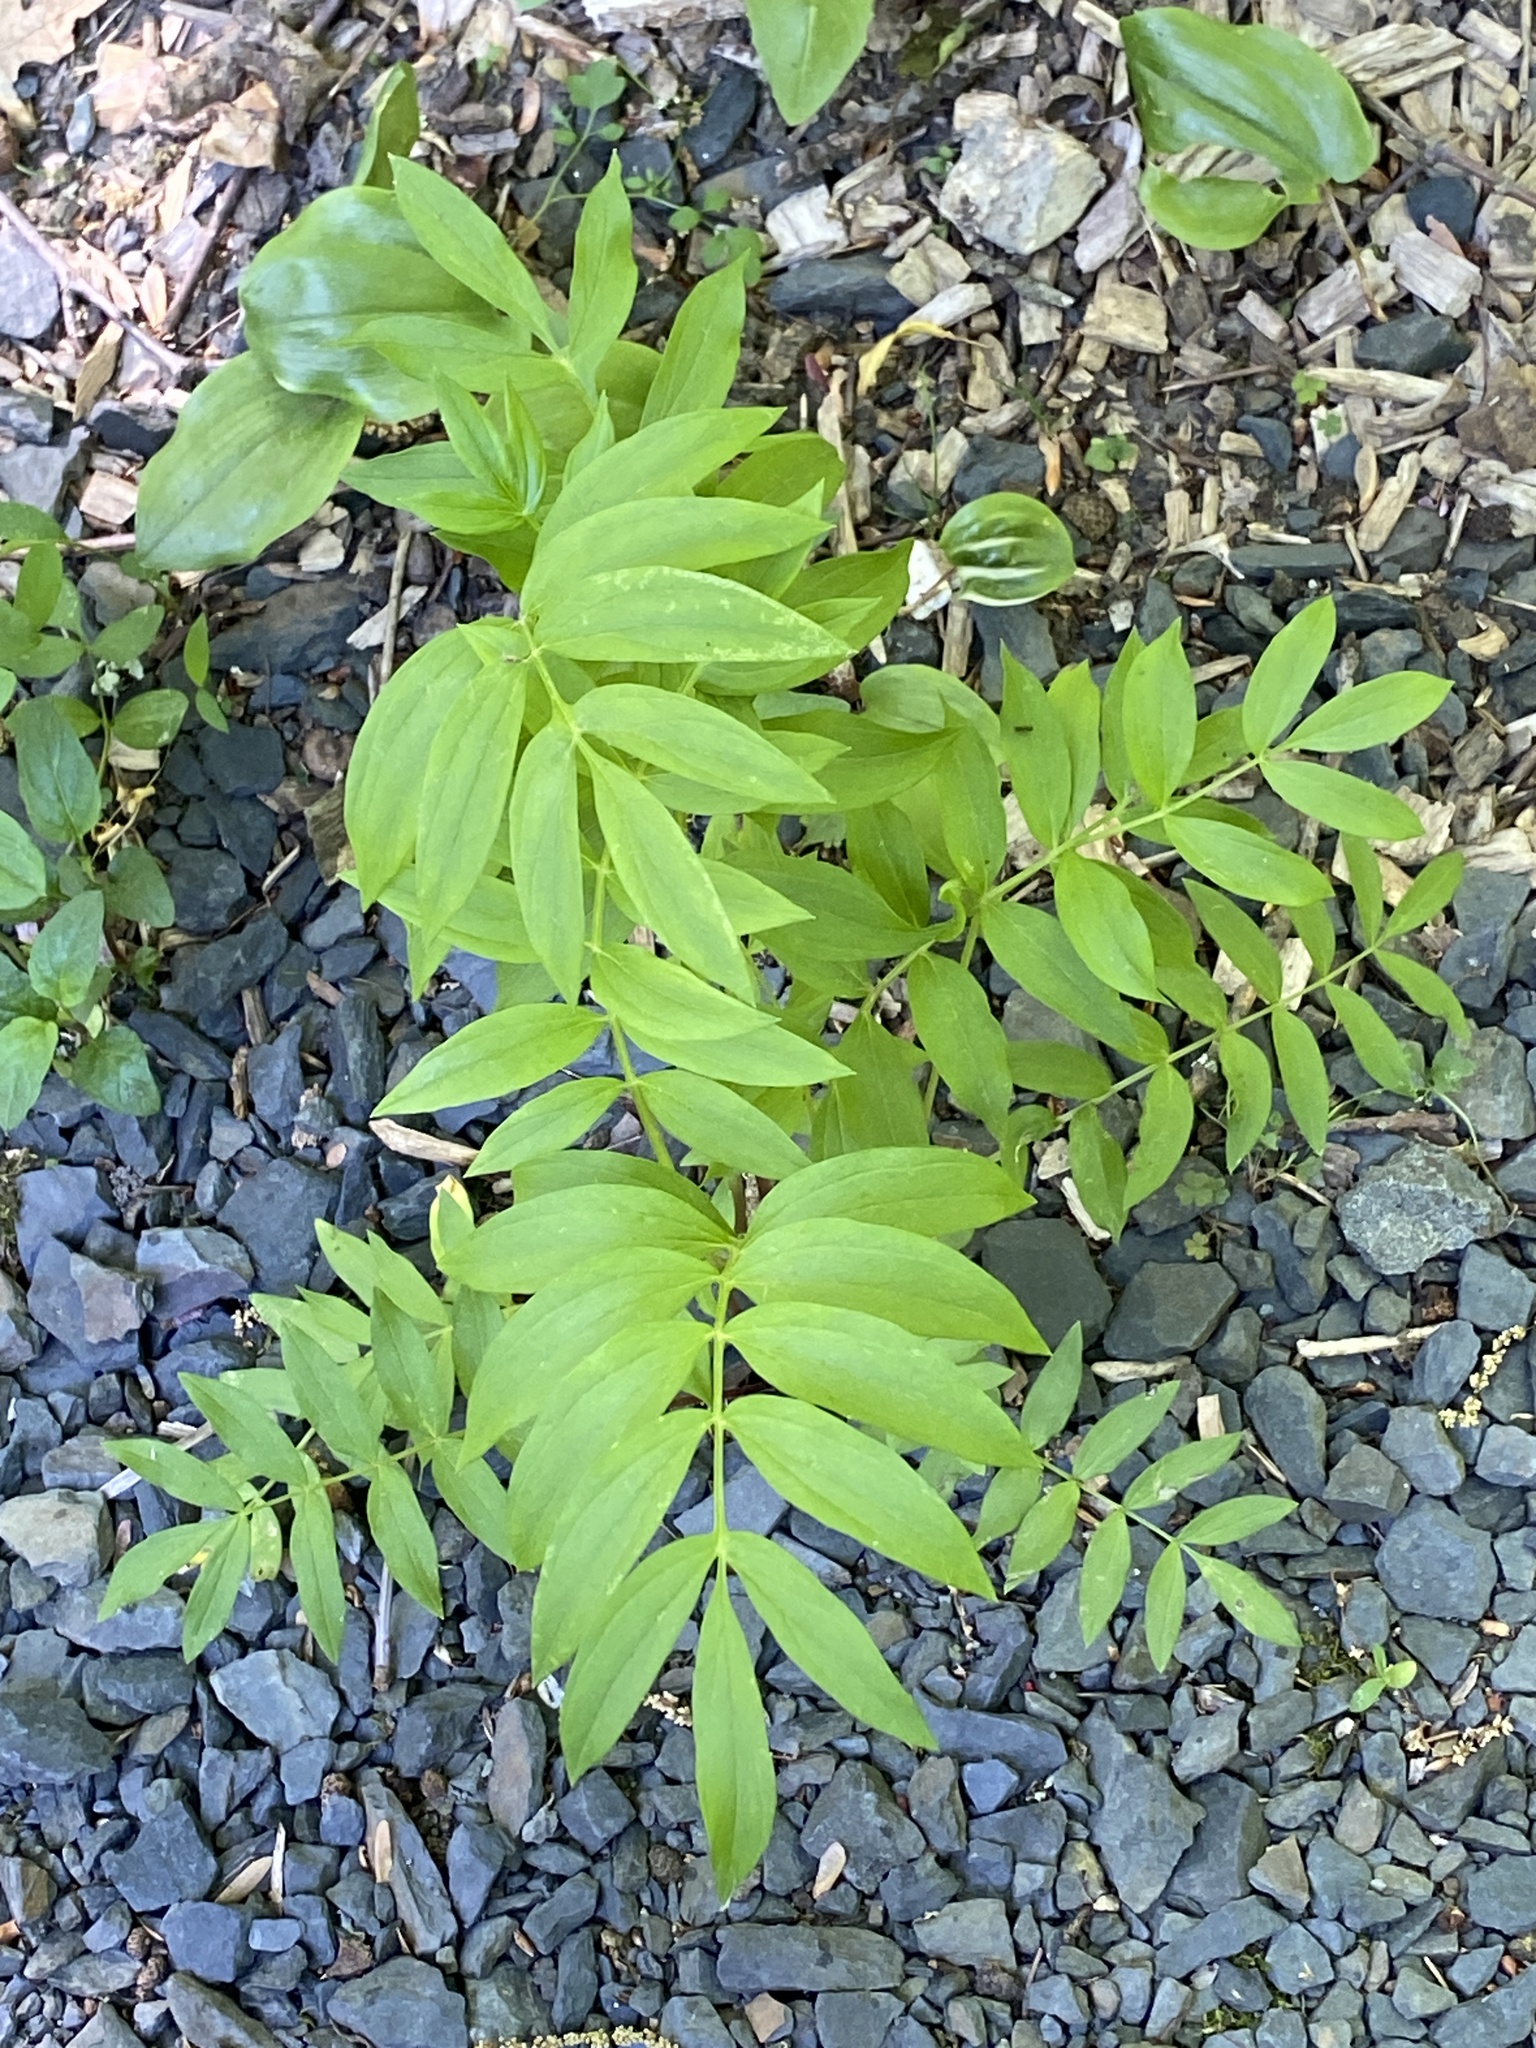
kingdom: Plantae
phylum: Tracheophyta
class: Magnoliopsida
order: Ericales
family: Polemoniaceae
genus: Polemonium
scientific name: Polemonium reptans
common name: Creeping jacob's-ladder
